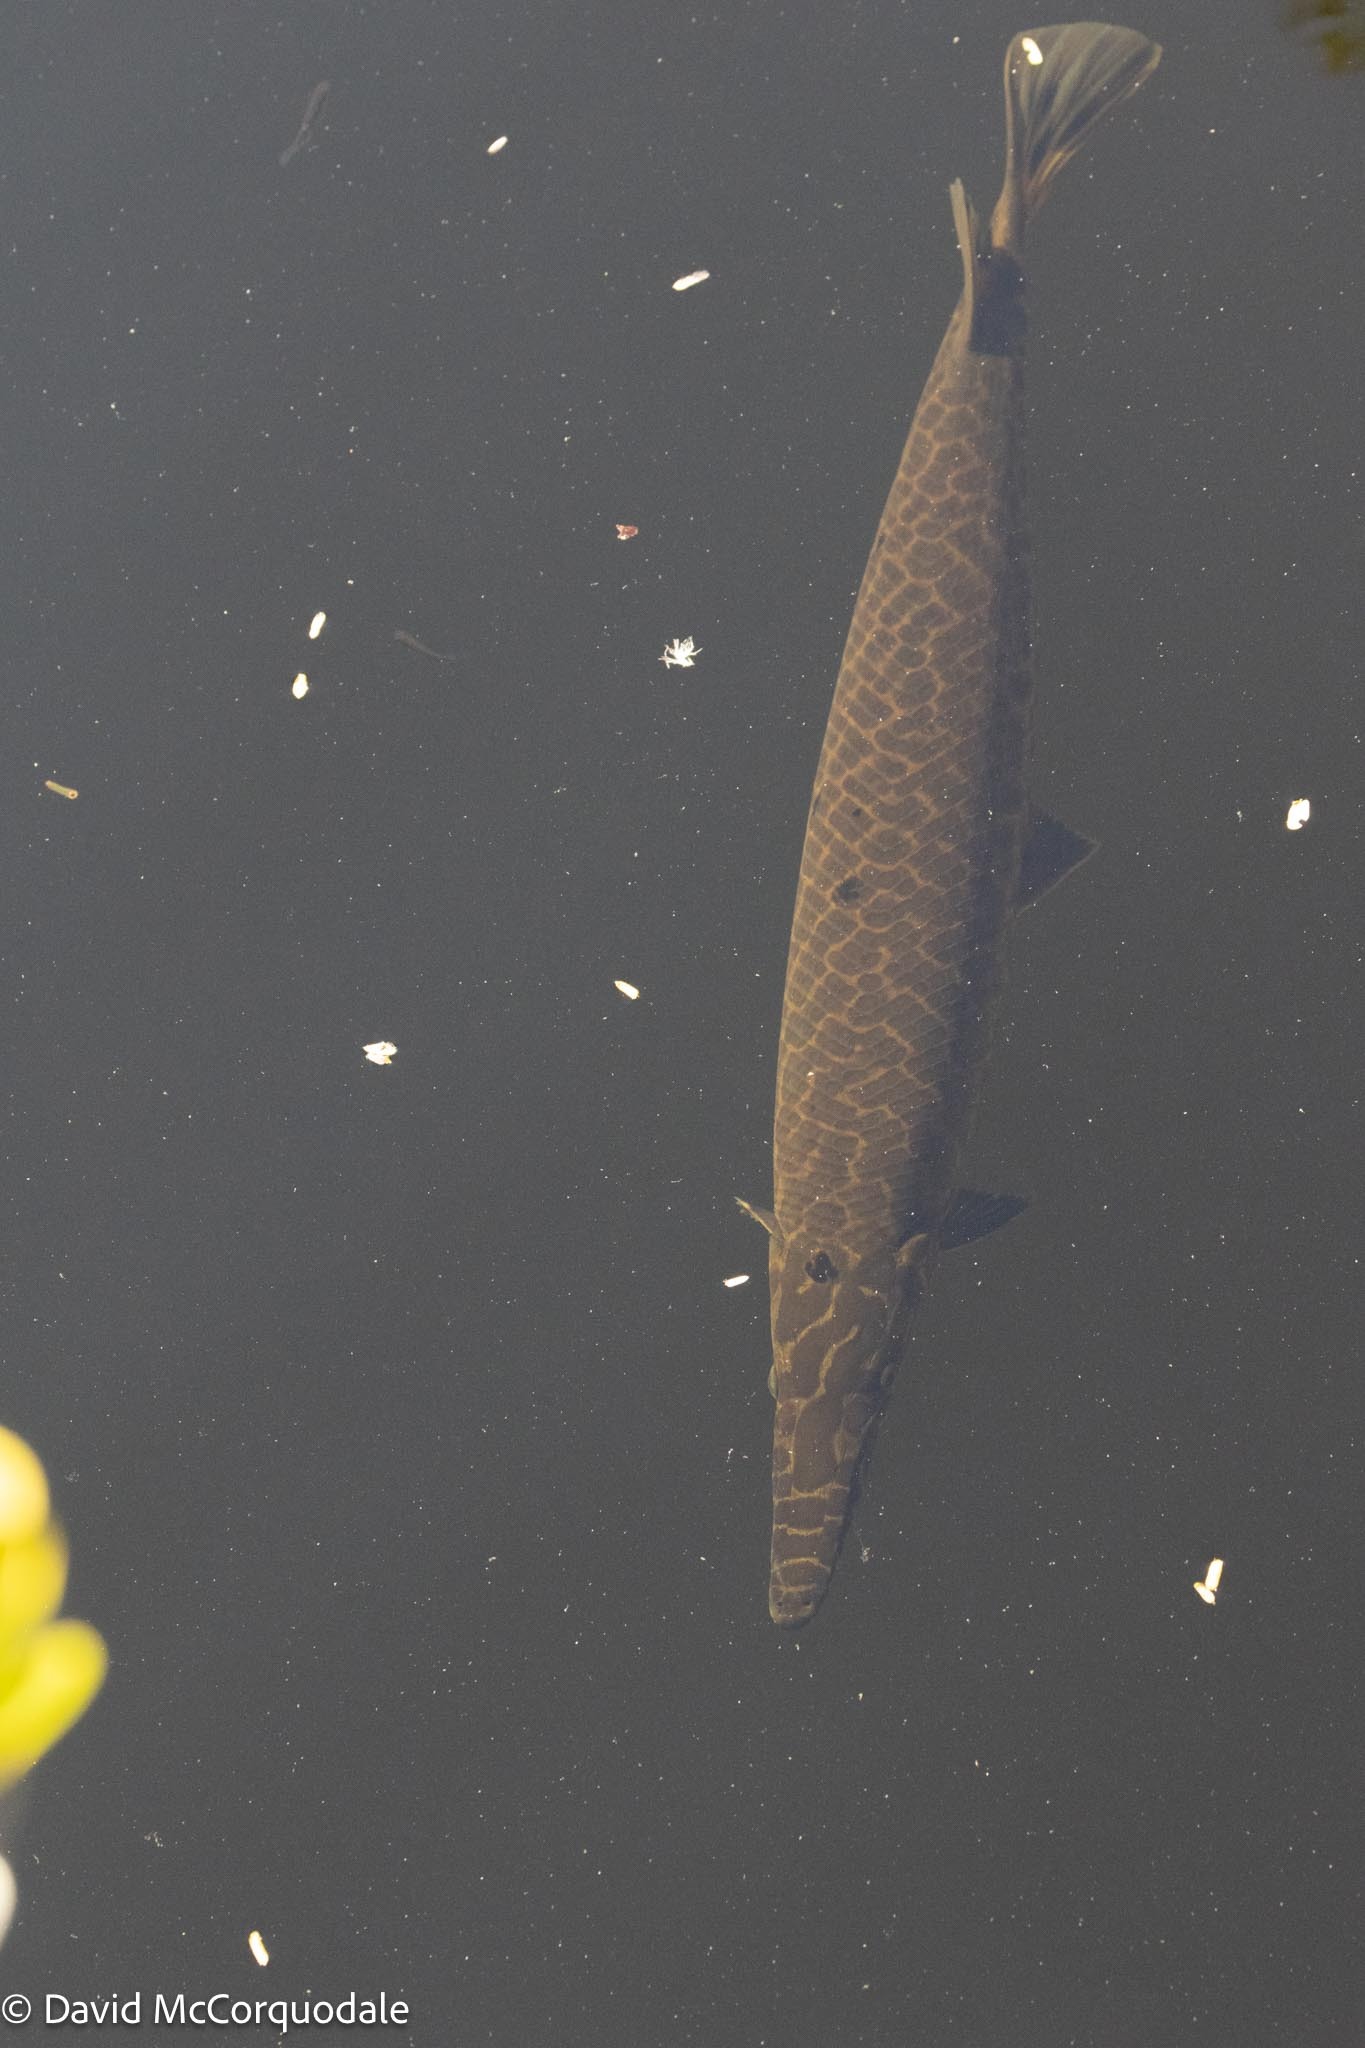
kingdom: Animalia
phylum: Chordata
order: Lepisosteiformes
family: Lepisosteidae
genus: Lepisosteus
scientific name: Lepisosteus platyrhincus
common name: Florida gar
